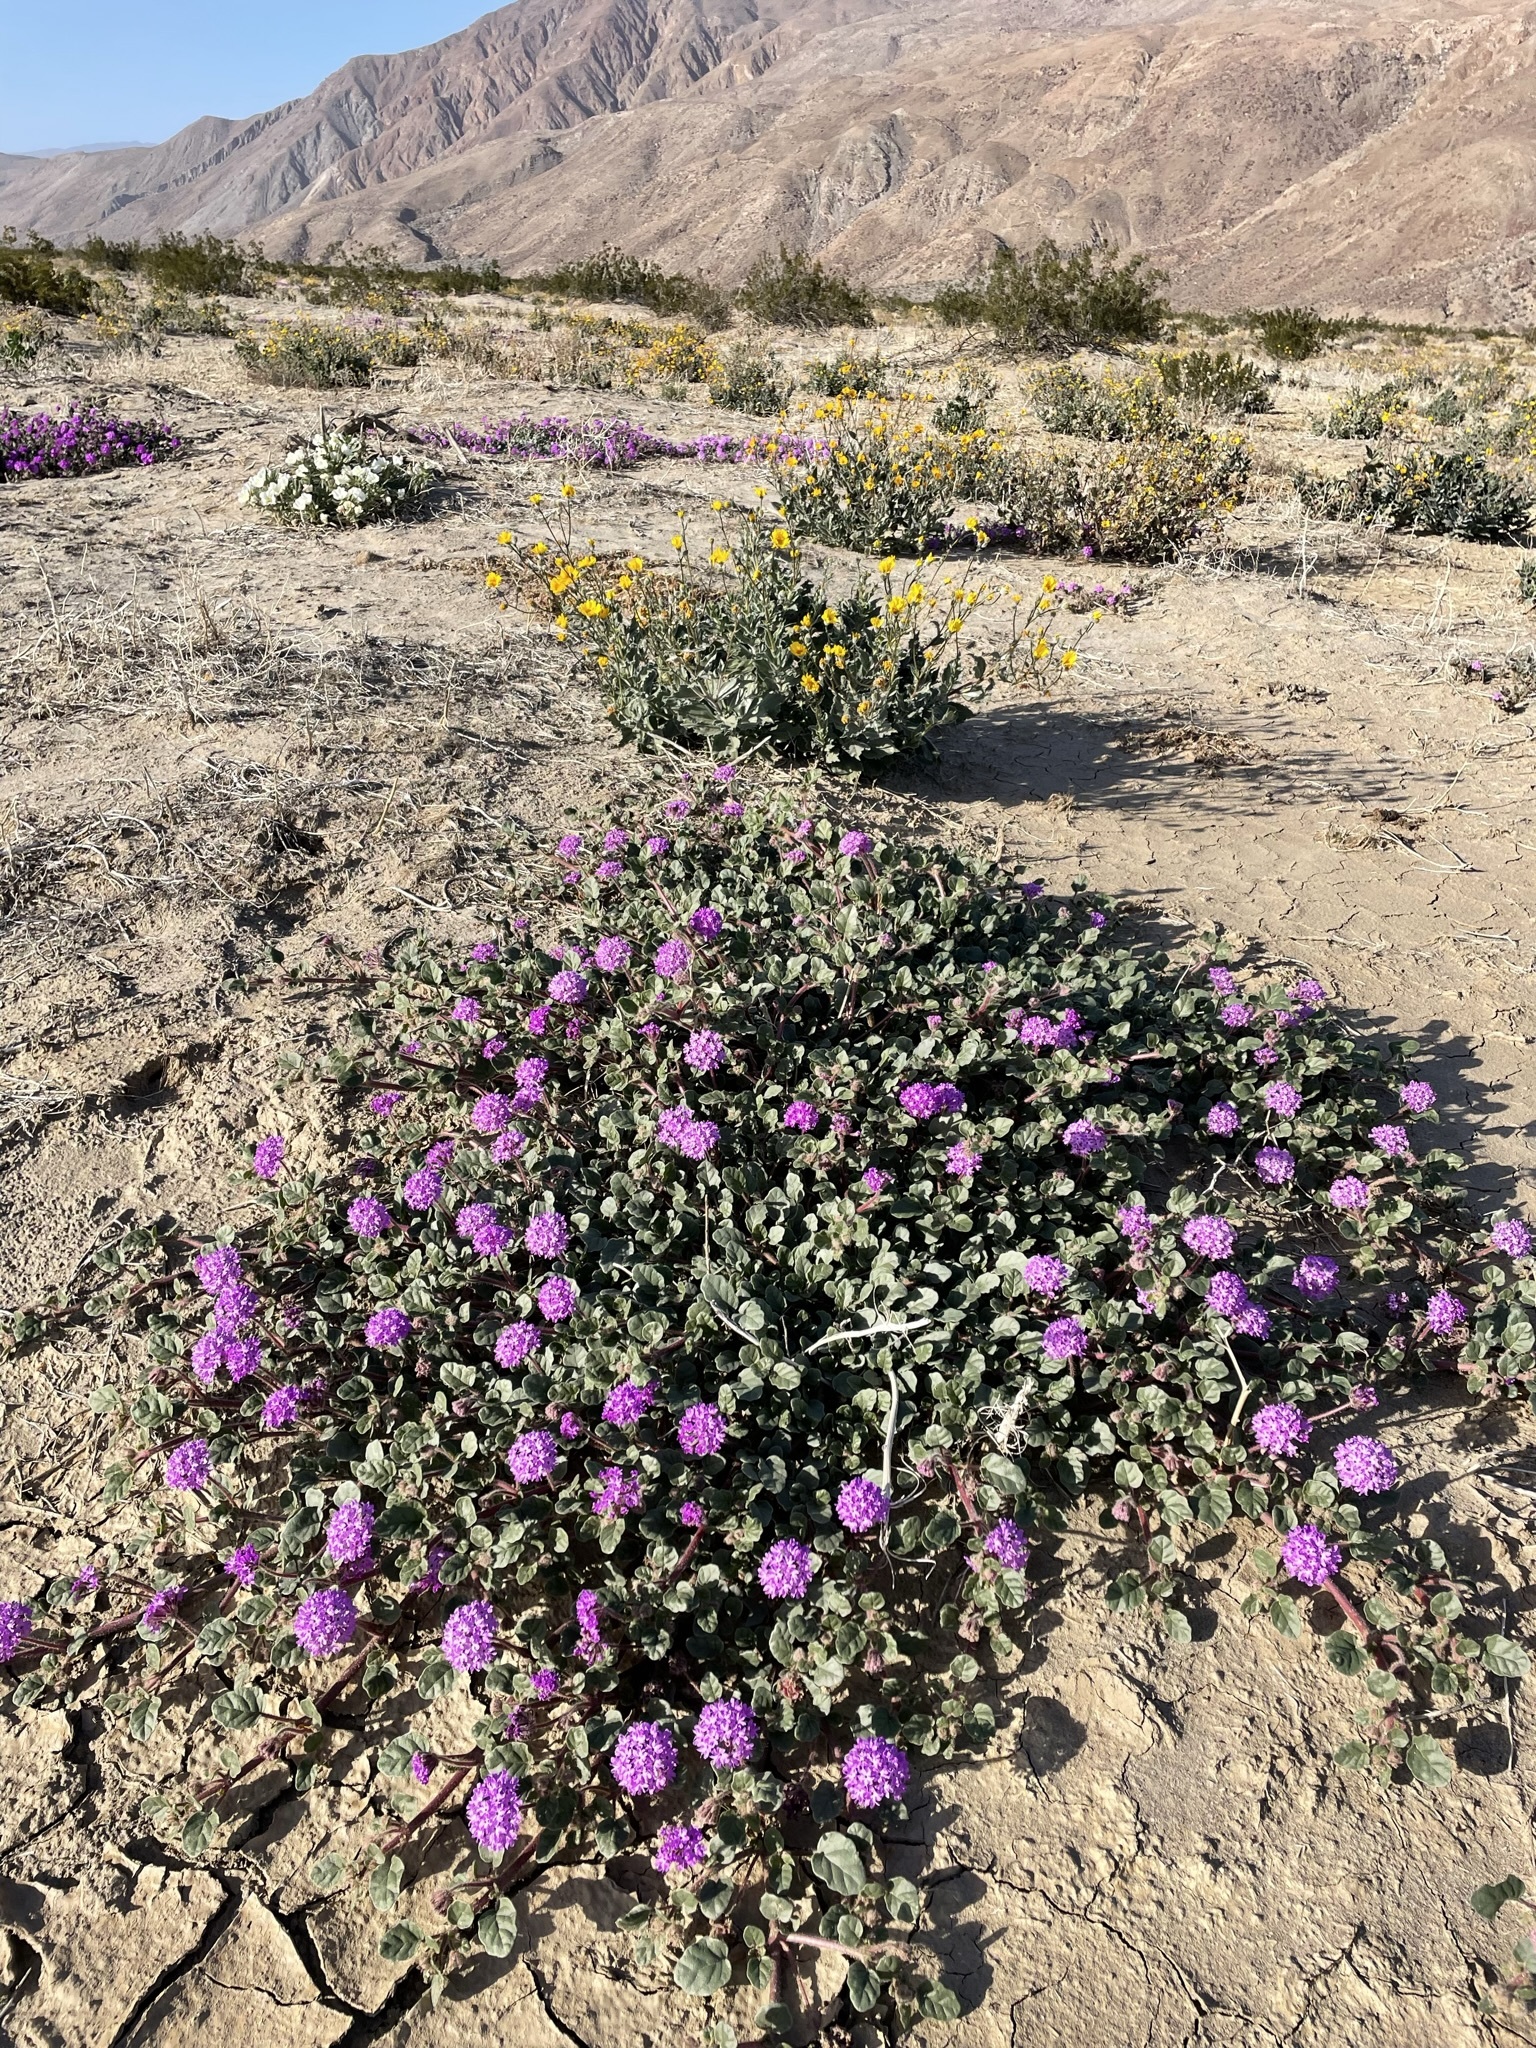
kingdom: Plantae
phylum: Tracheophyta
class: Magnoliopsida
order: Caryophyllales
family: Nyctaginaceae
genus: Abronia
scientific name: Abronia villosa
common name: Desert sand-verbena
